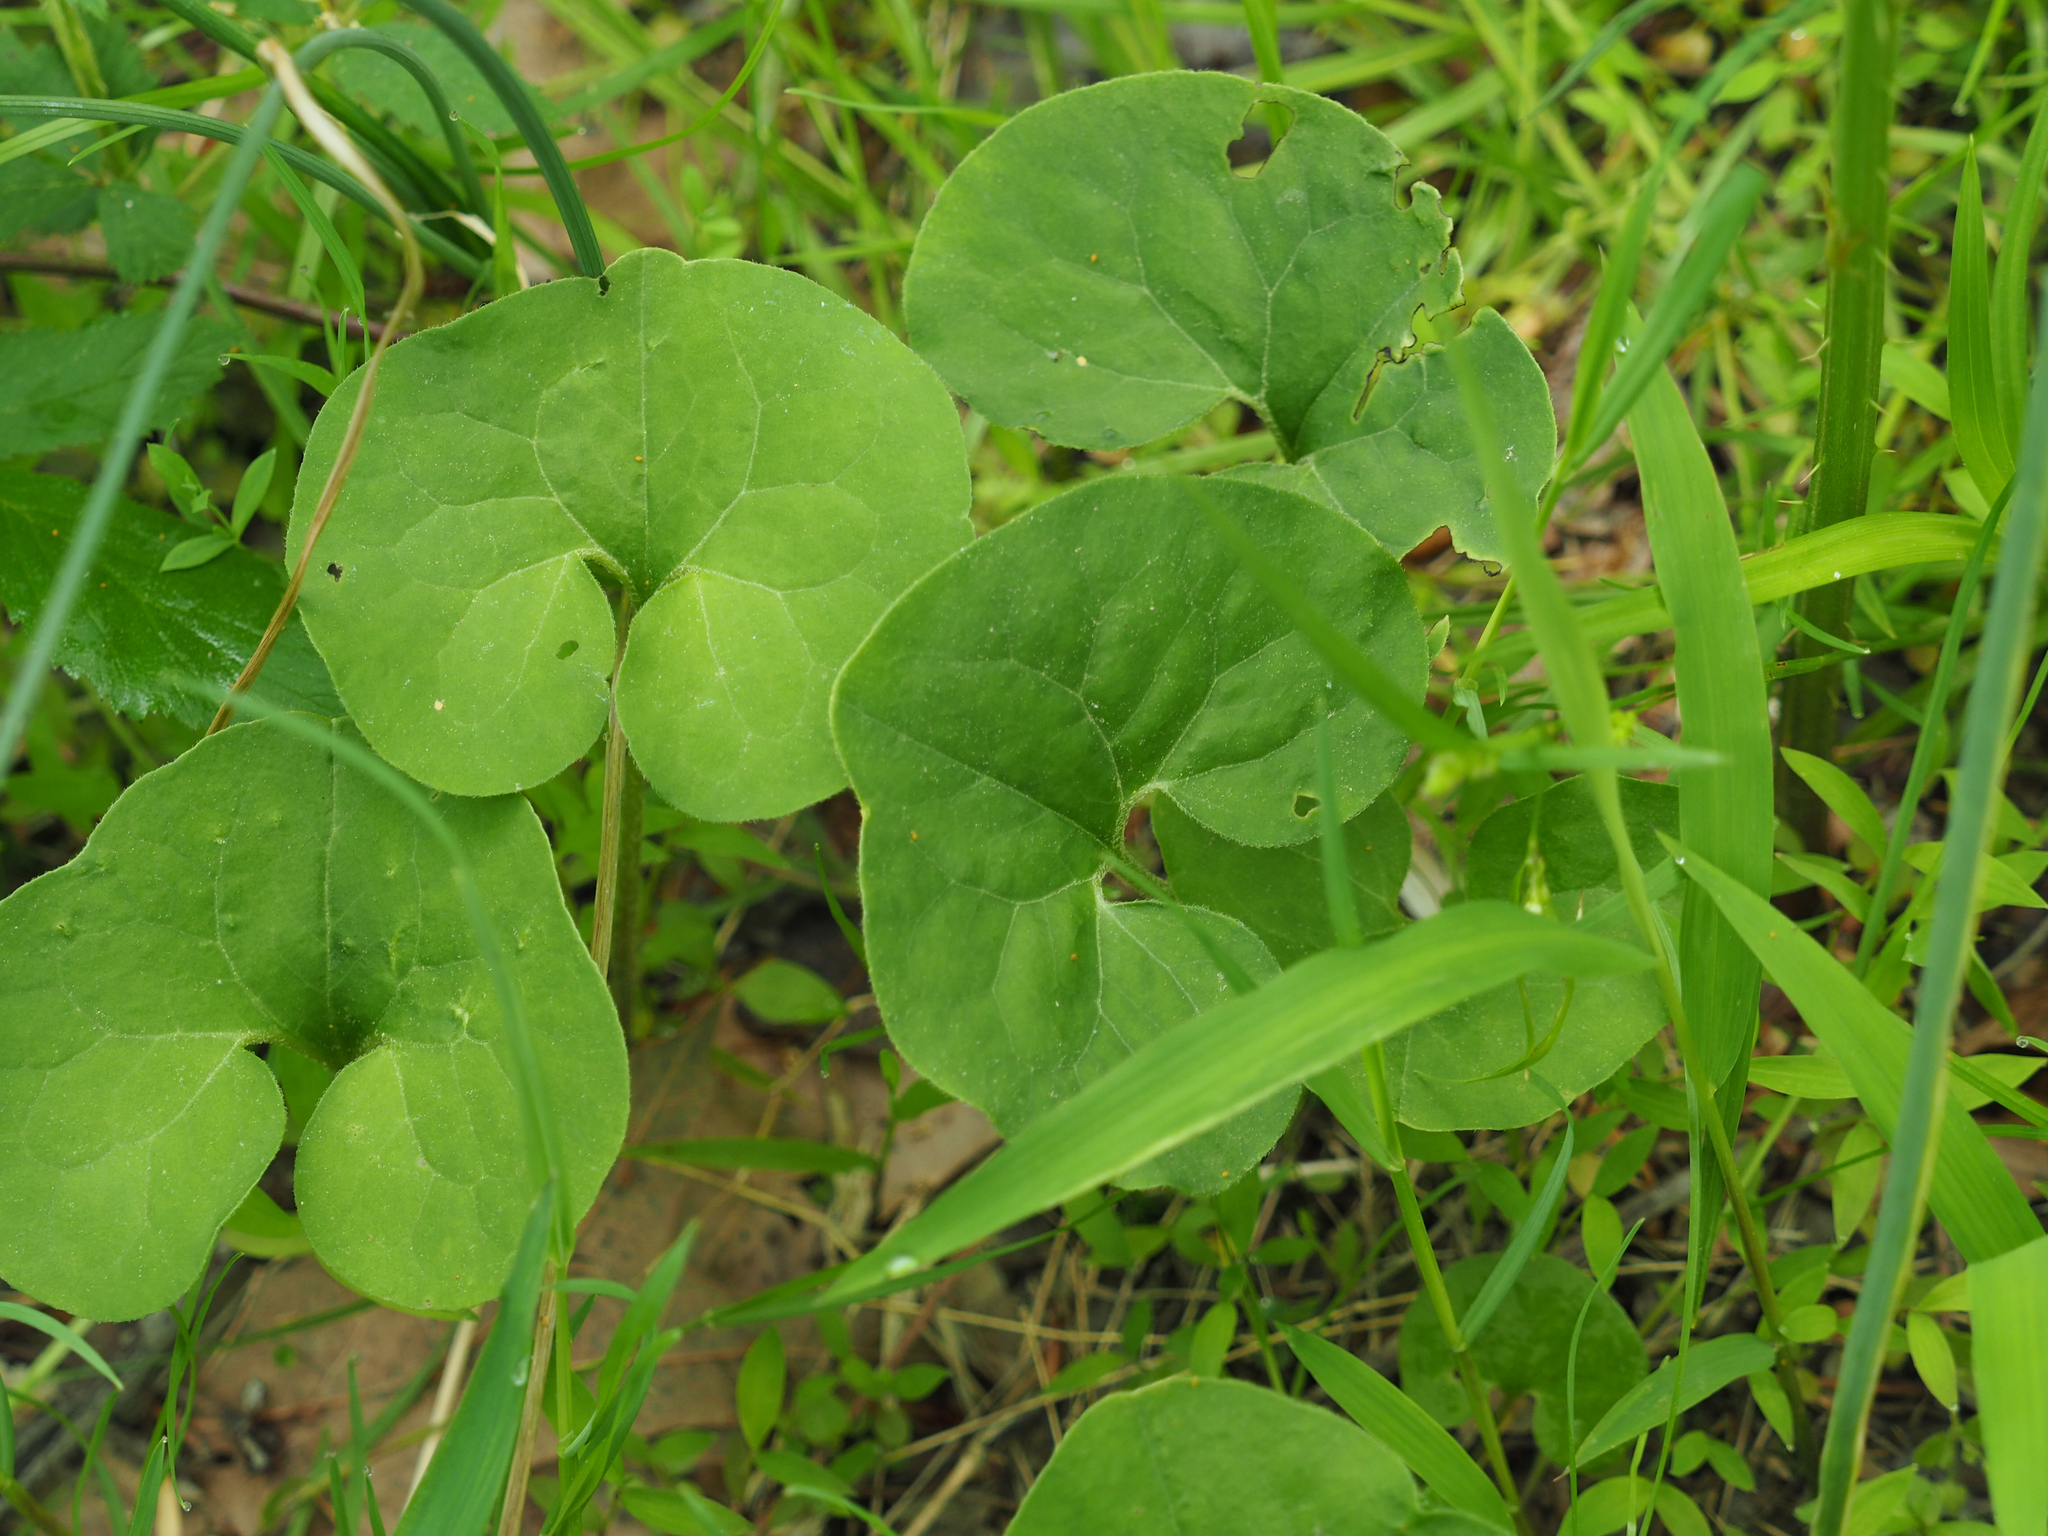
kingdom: Plantae
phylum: Tracheophyta
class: Magnoliopsida
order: Piperales
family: Aristolochiaceae
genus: Asarum
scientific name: Asarum canadense
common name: Wild ginger
